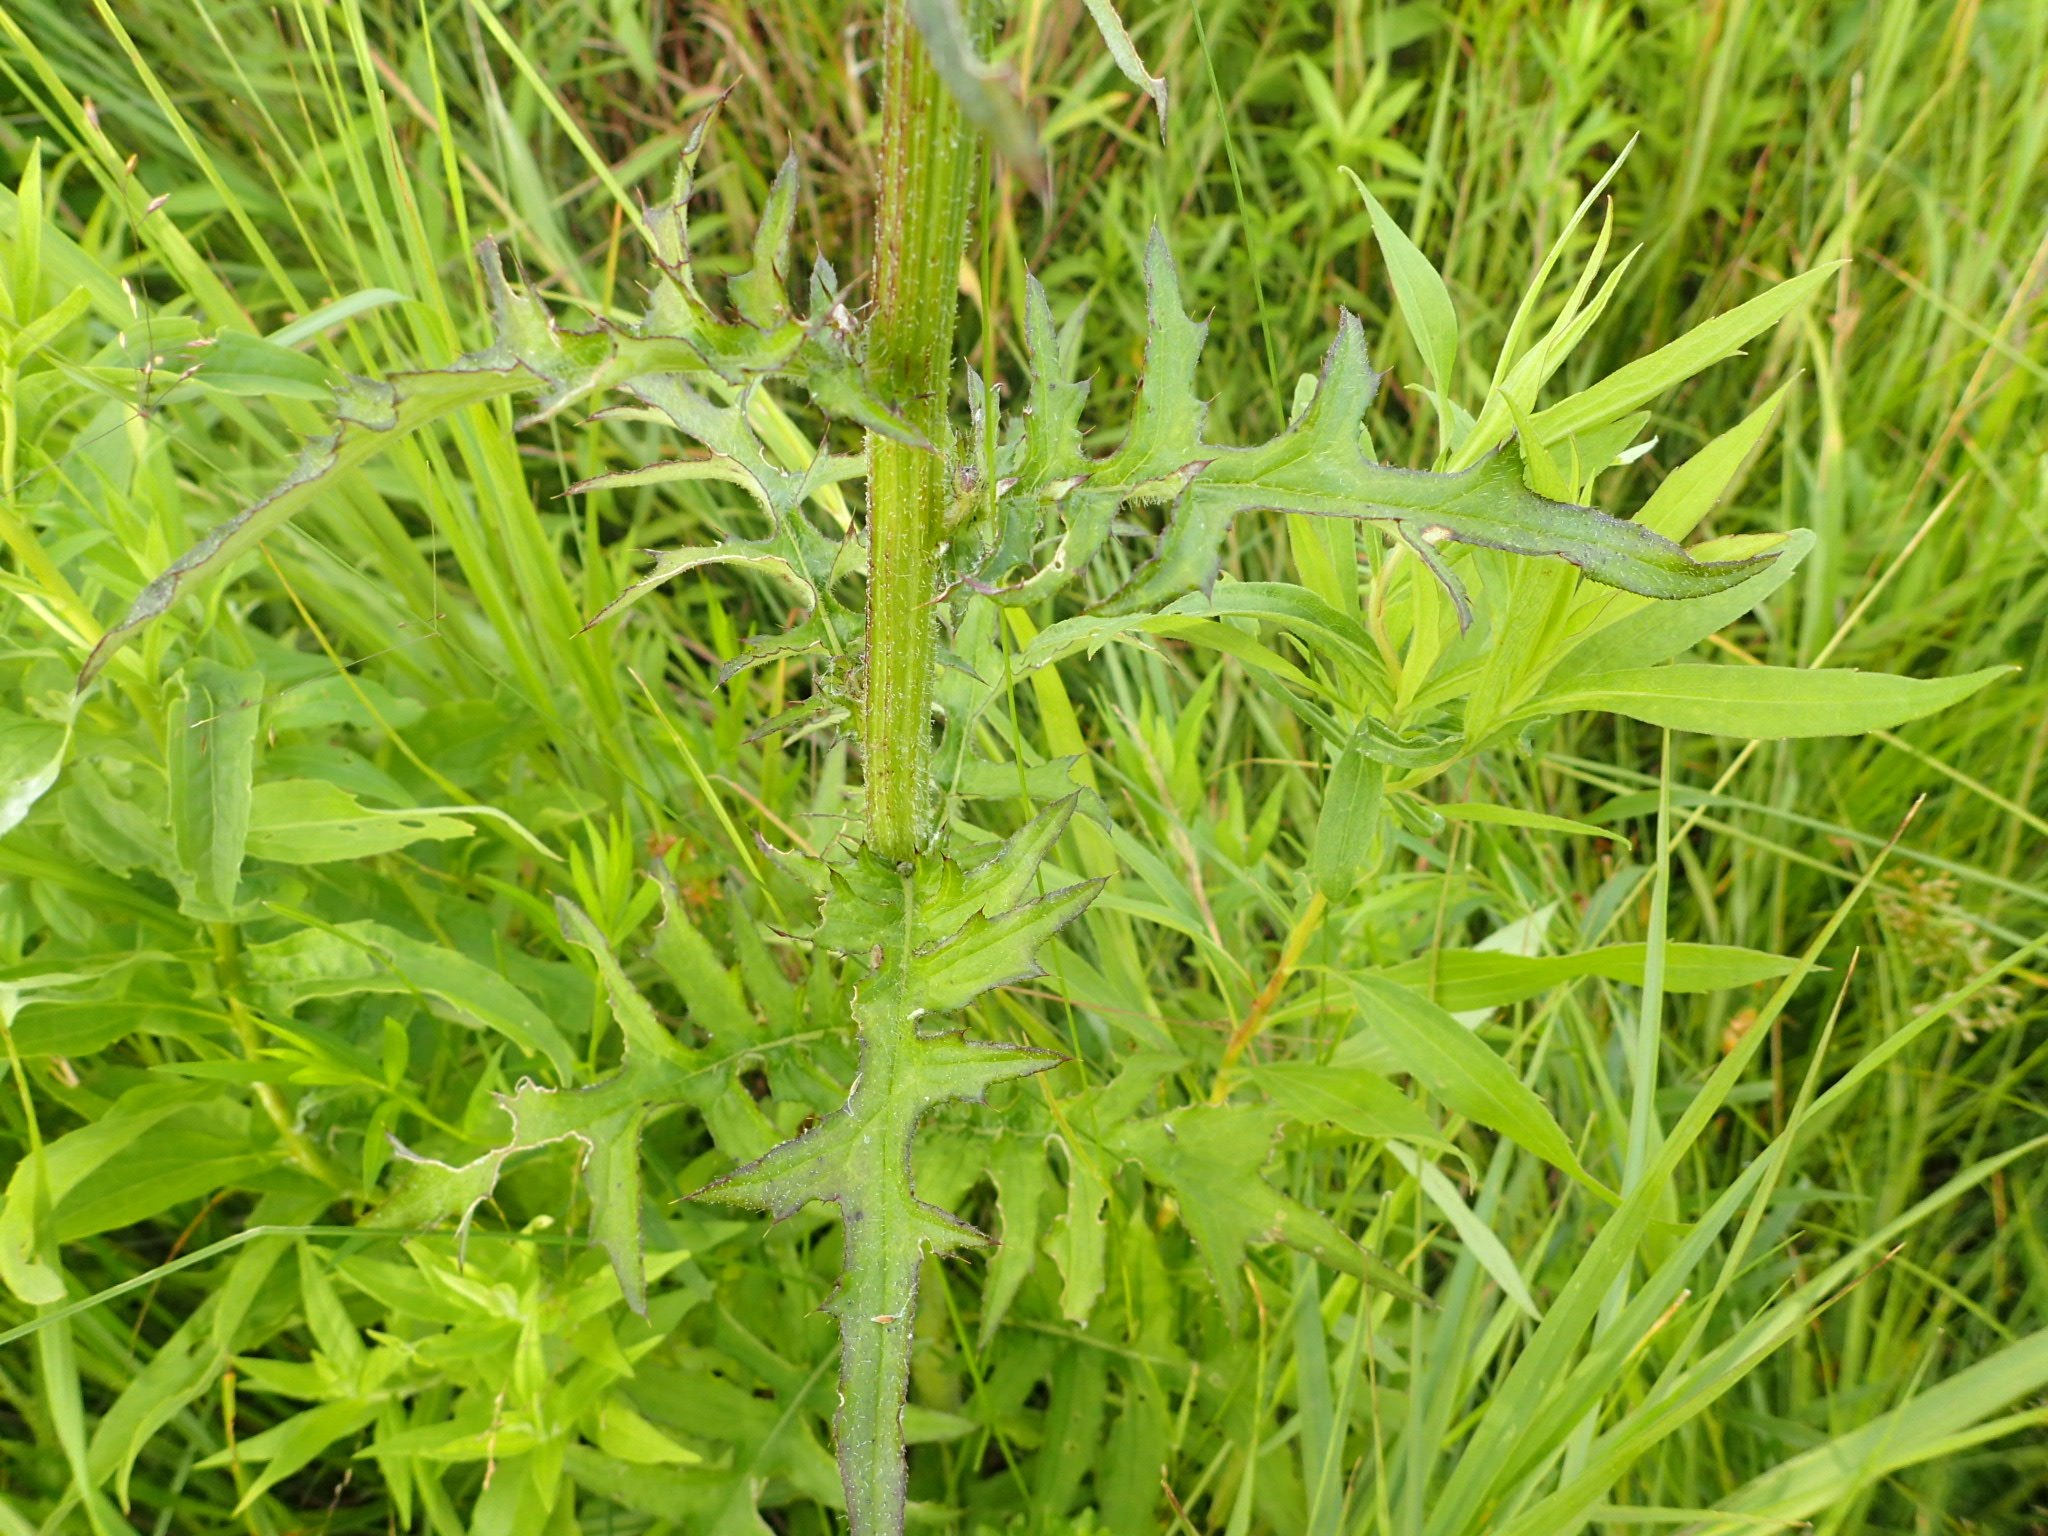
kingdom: Plantae
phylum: Tracheophyta
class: Magnoliopsida
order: Asterales
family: Asteraceae
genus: Cirsium
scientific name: Cirsium muticum
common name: Dunce-nettle
